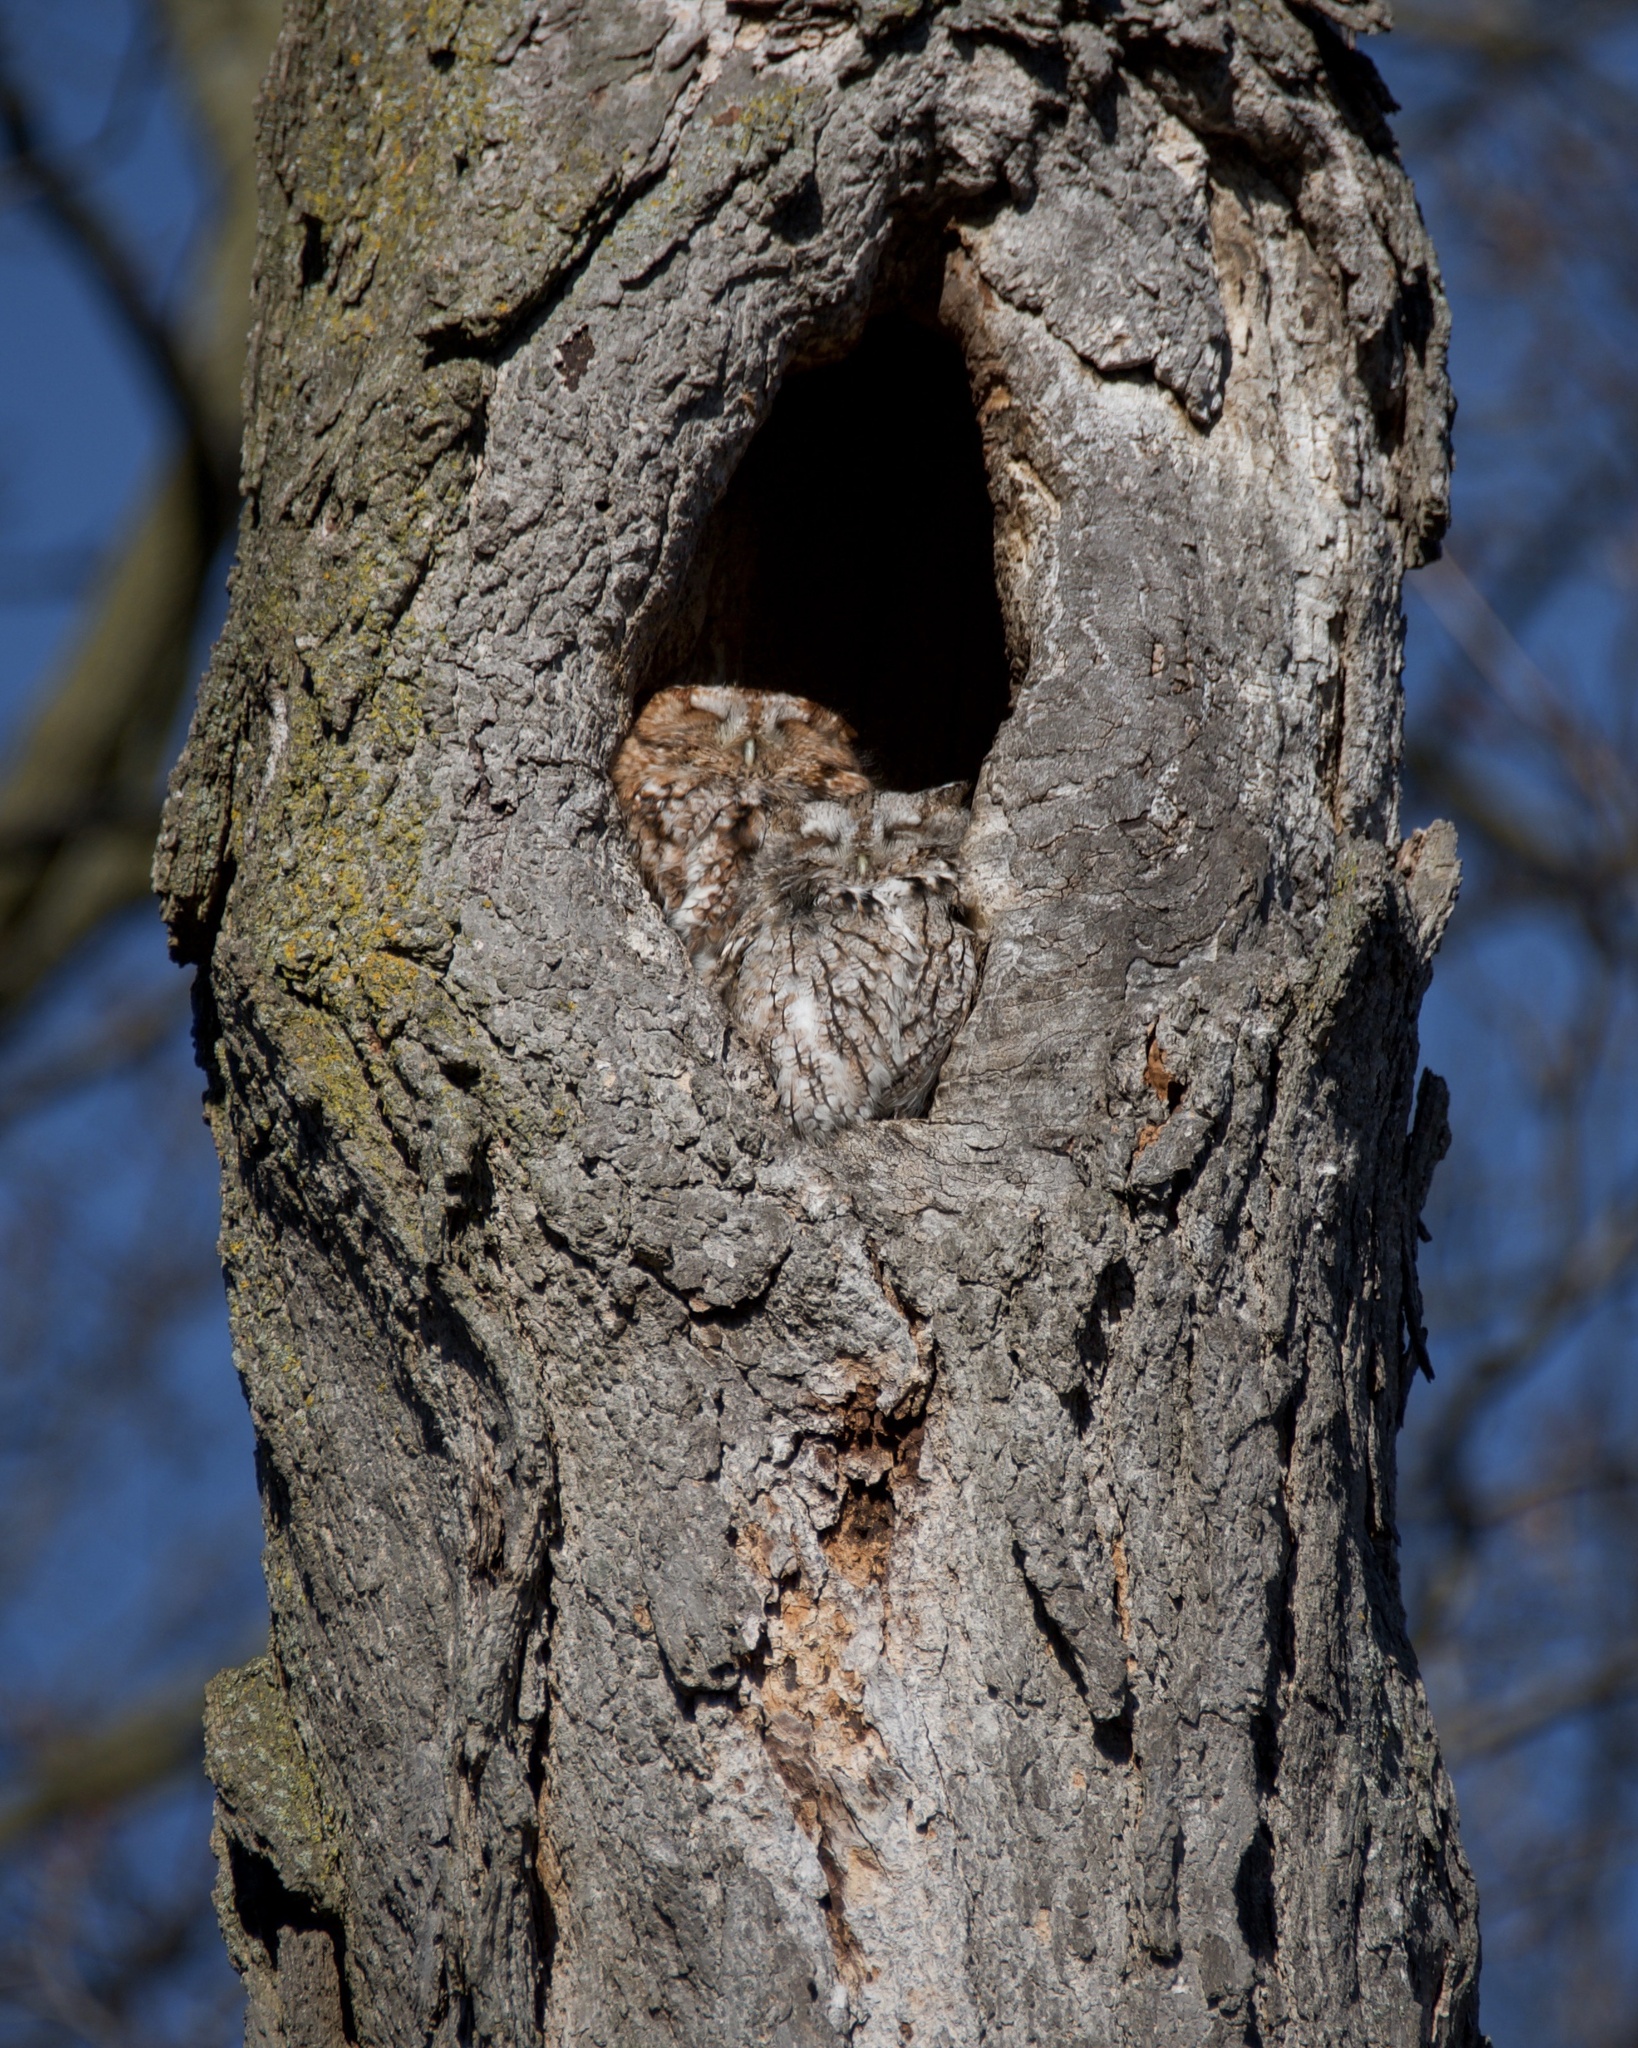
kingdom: Animalia
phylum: Chordata
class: Aves
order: Strigiformes
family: Strigidae
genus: Megascops
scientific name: Megascops asio
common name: Eastern screech-owl
